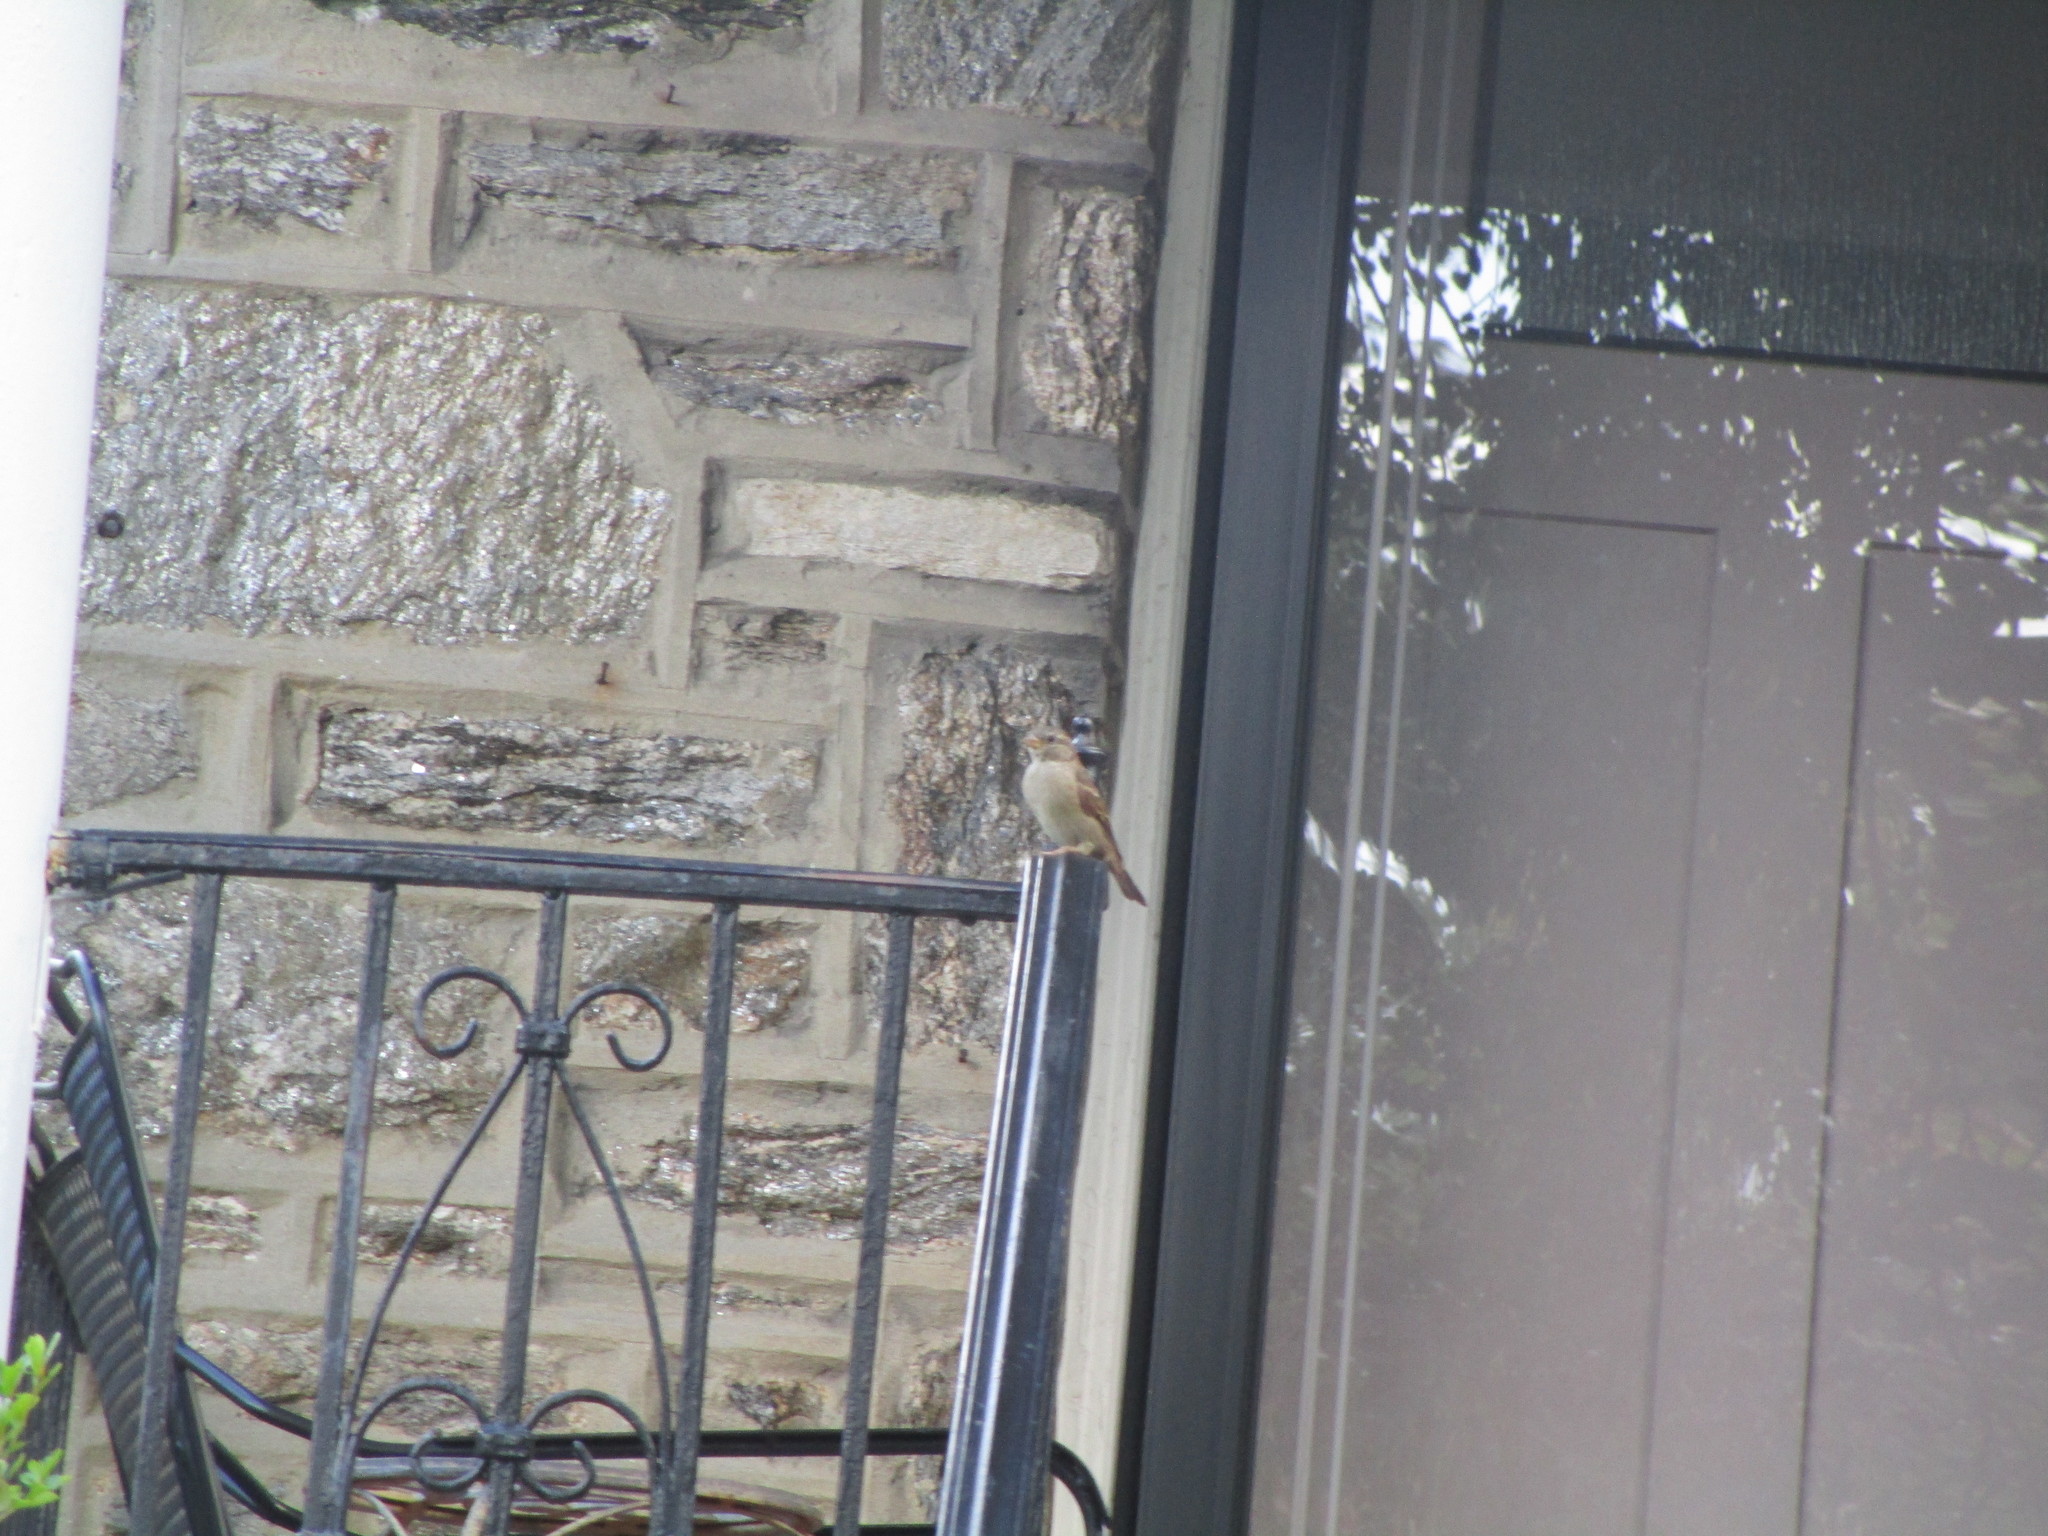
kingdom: Animalia
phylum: Chordata
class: Aves
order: Passeriformes
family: Passeridae
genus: Passer
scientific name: Passer domesticus
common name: House sparrow
